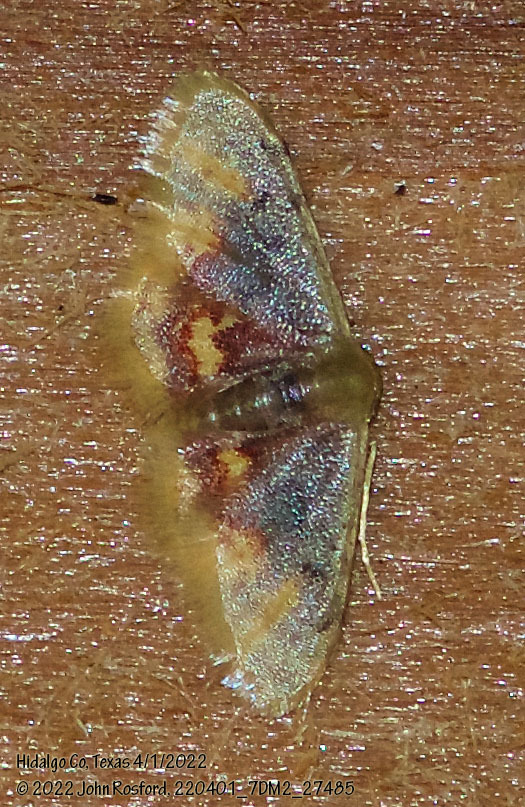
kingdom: Animalia
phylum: Arthropoda
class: Insecta
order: Lepidoptera
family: Geometridae
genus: Idaea
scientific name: Idaea scintillularia
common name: Diminutive wave
